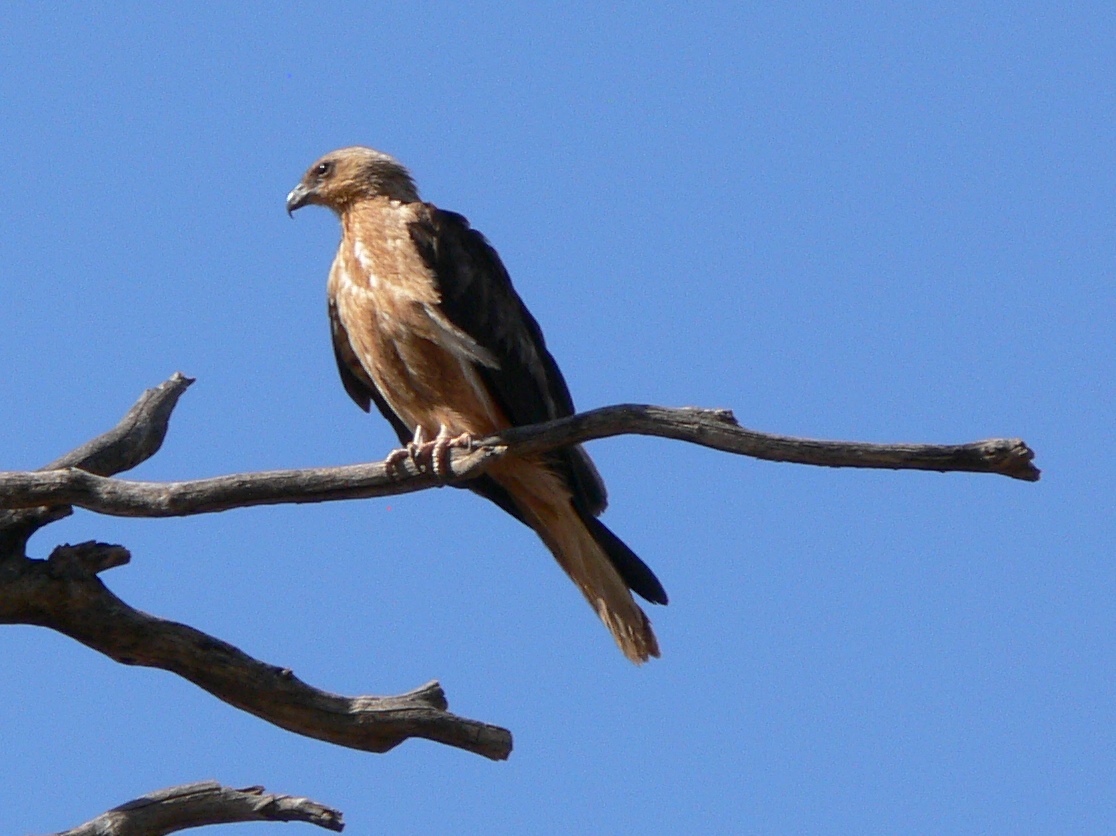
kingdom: Animalia
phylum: Chordata
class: Aves
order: Accipitriformes
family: Accipitridae
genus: Haliastur
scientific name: Haliastur sphenurus
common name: Whistling kite
